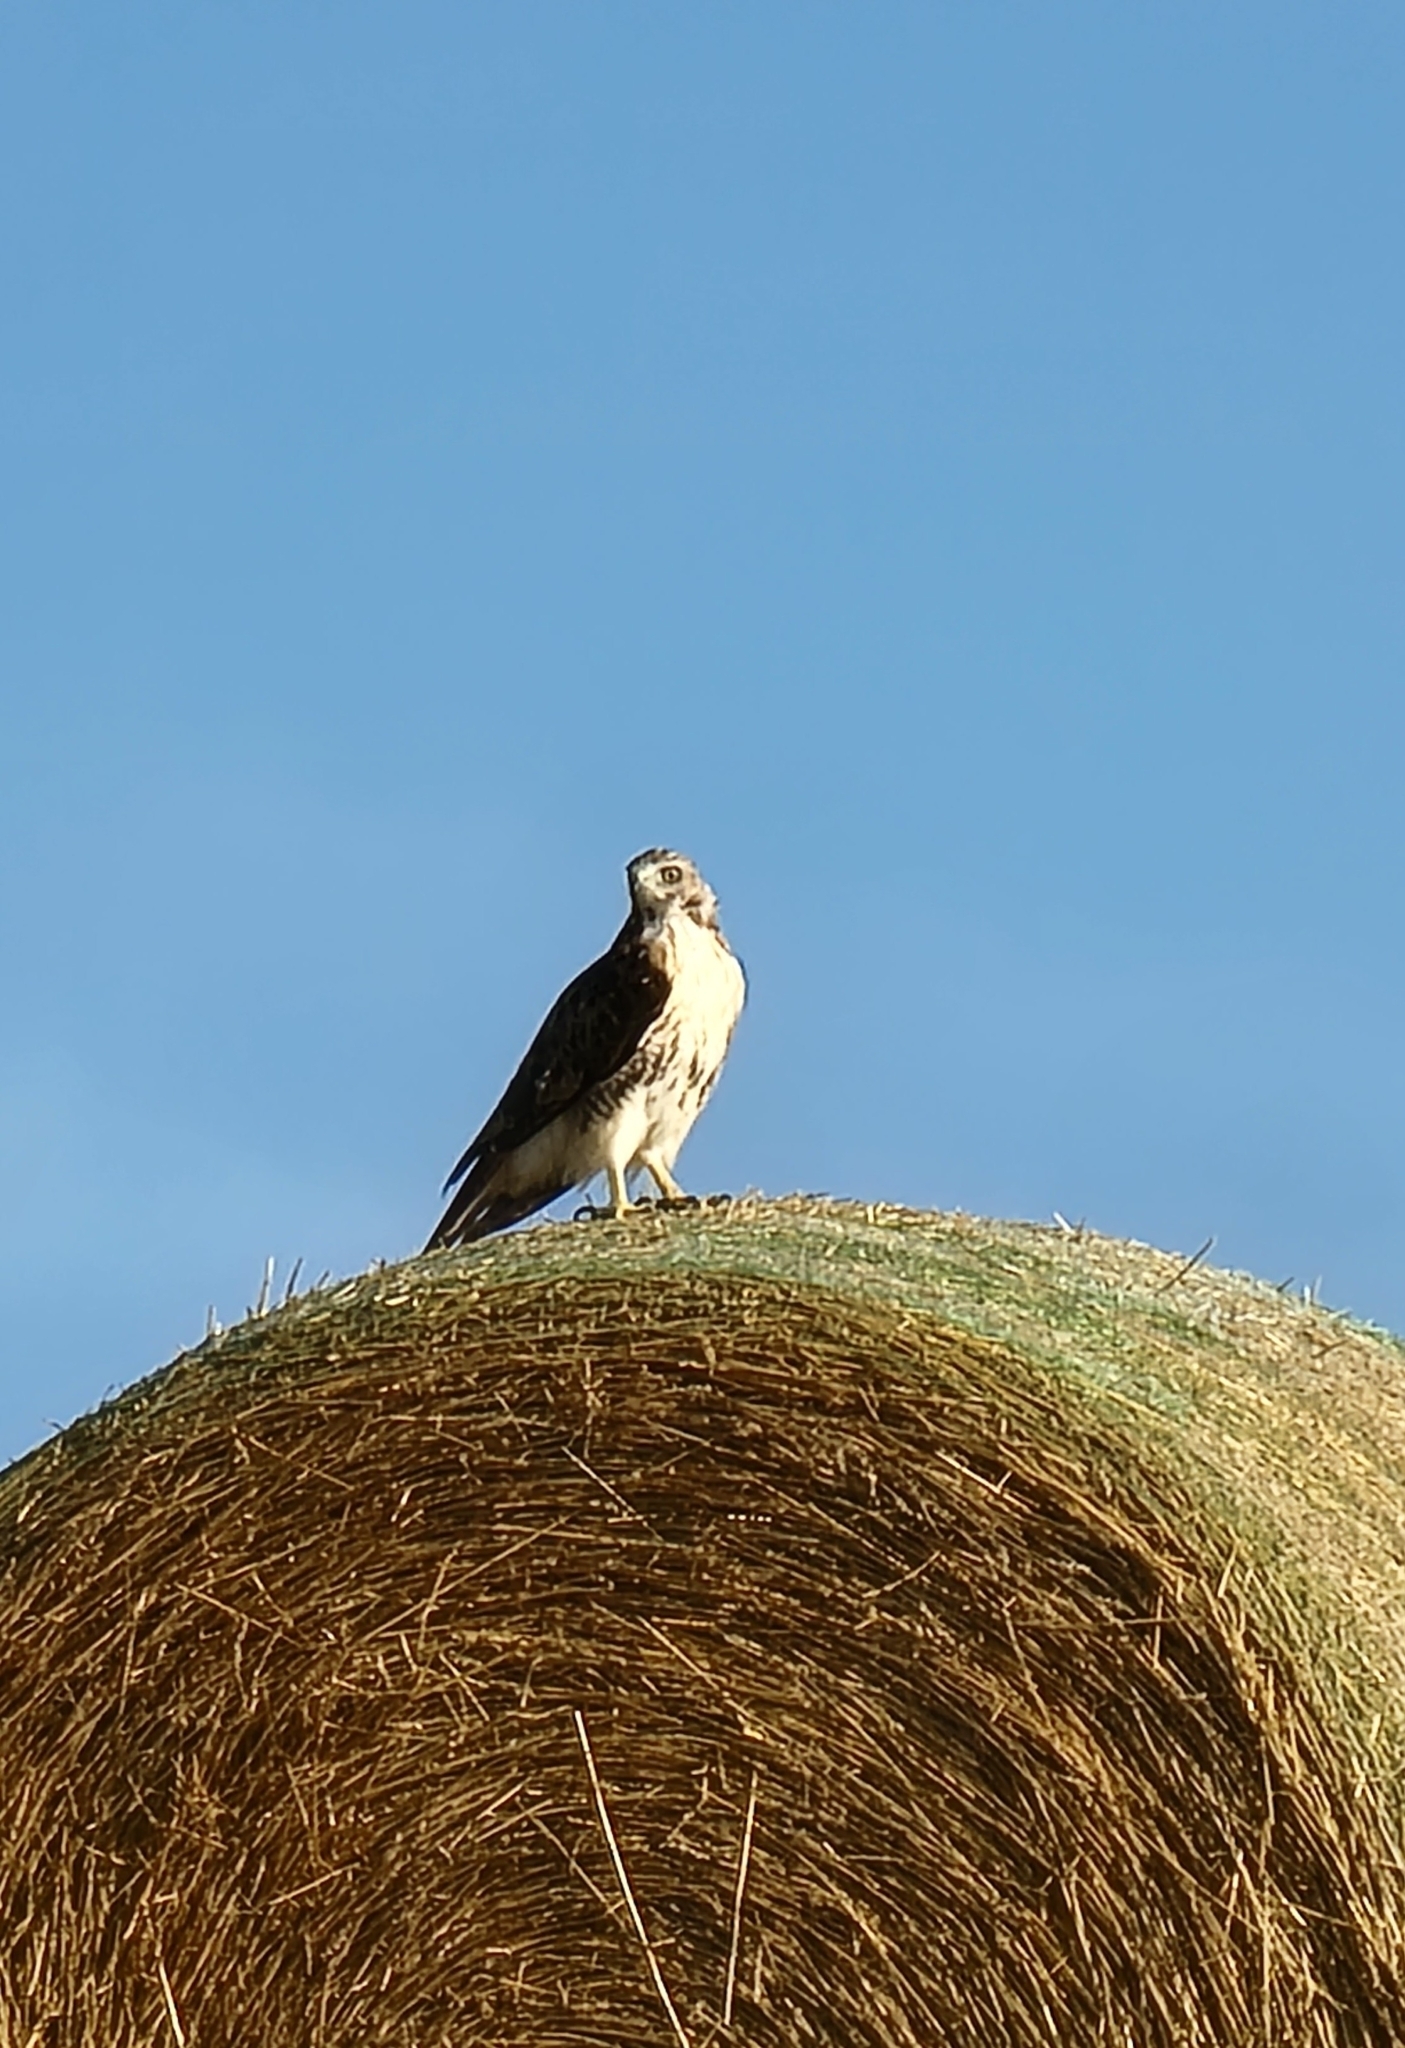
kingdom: Animalia
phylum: Chordata
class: Aves
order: Accipitriformes
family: Accipitridae
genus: Buteo
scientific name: Buteo jamaicensis
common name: Red-tailed hawk
